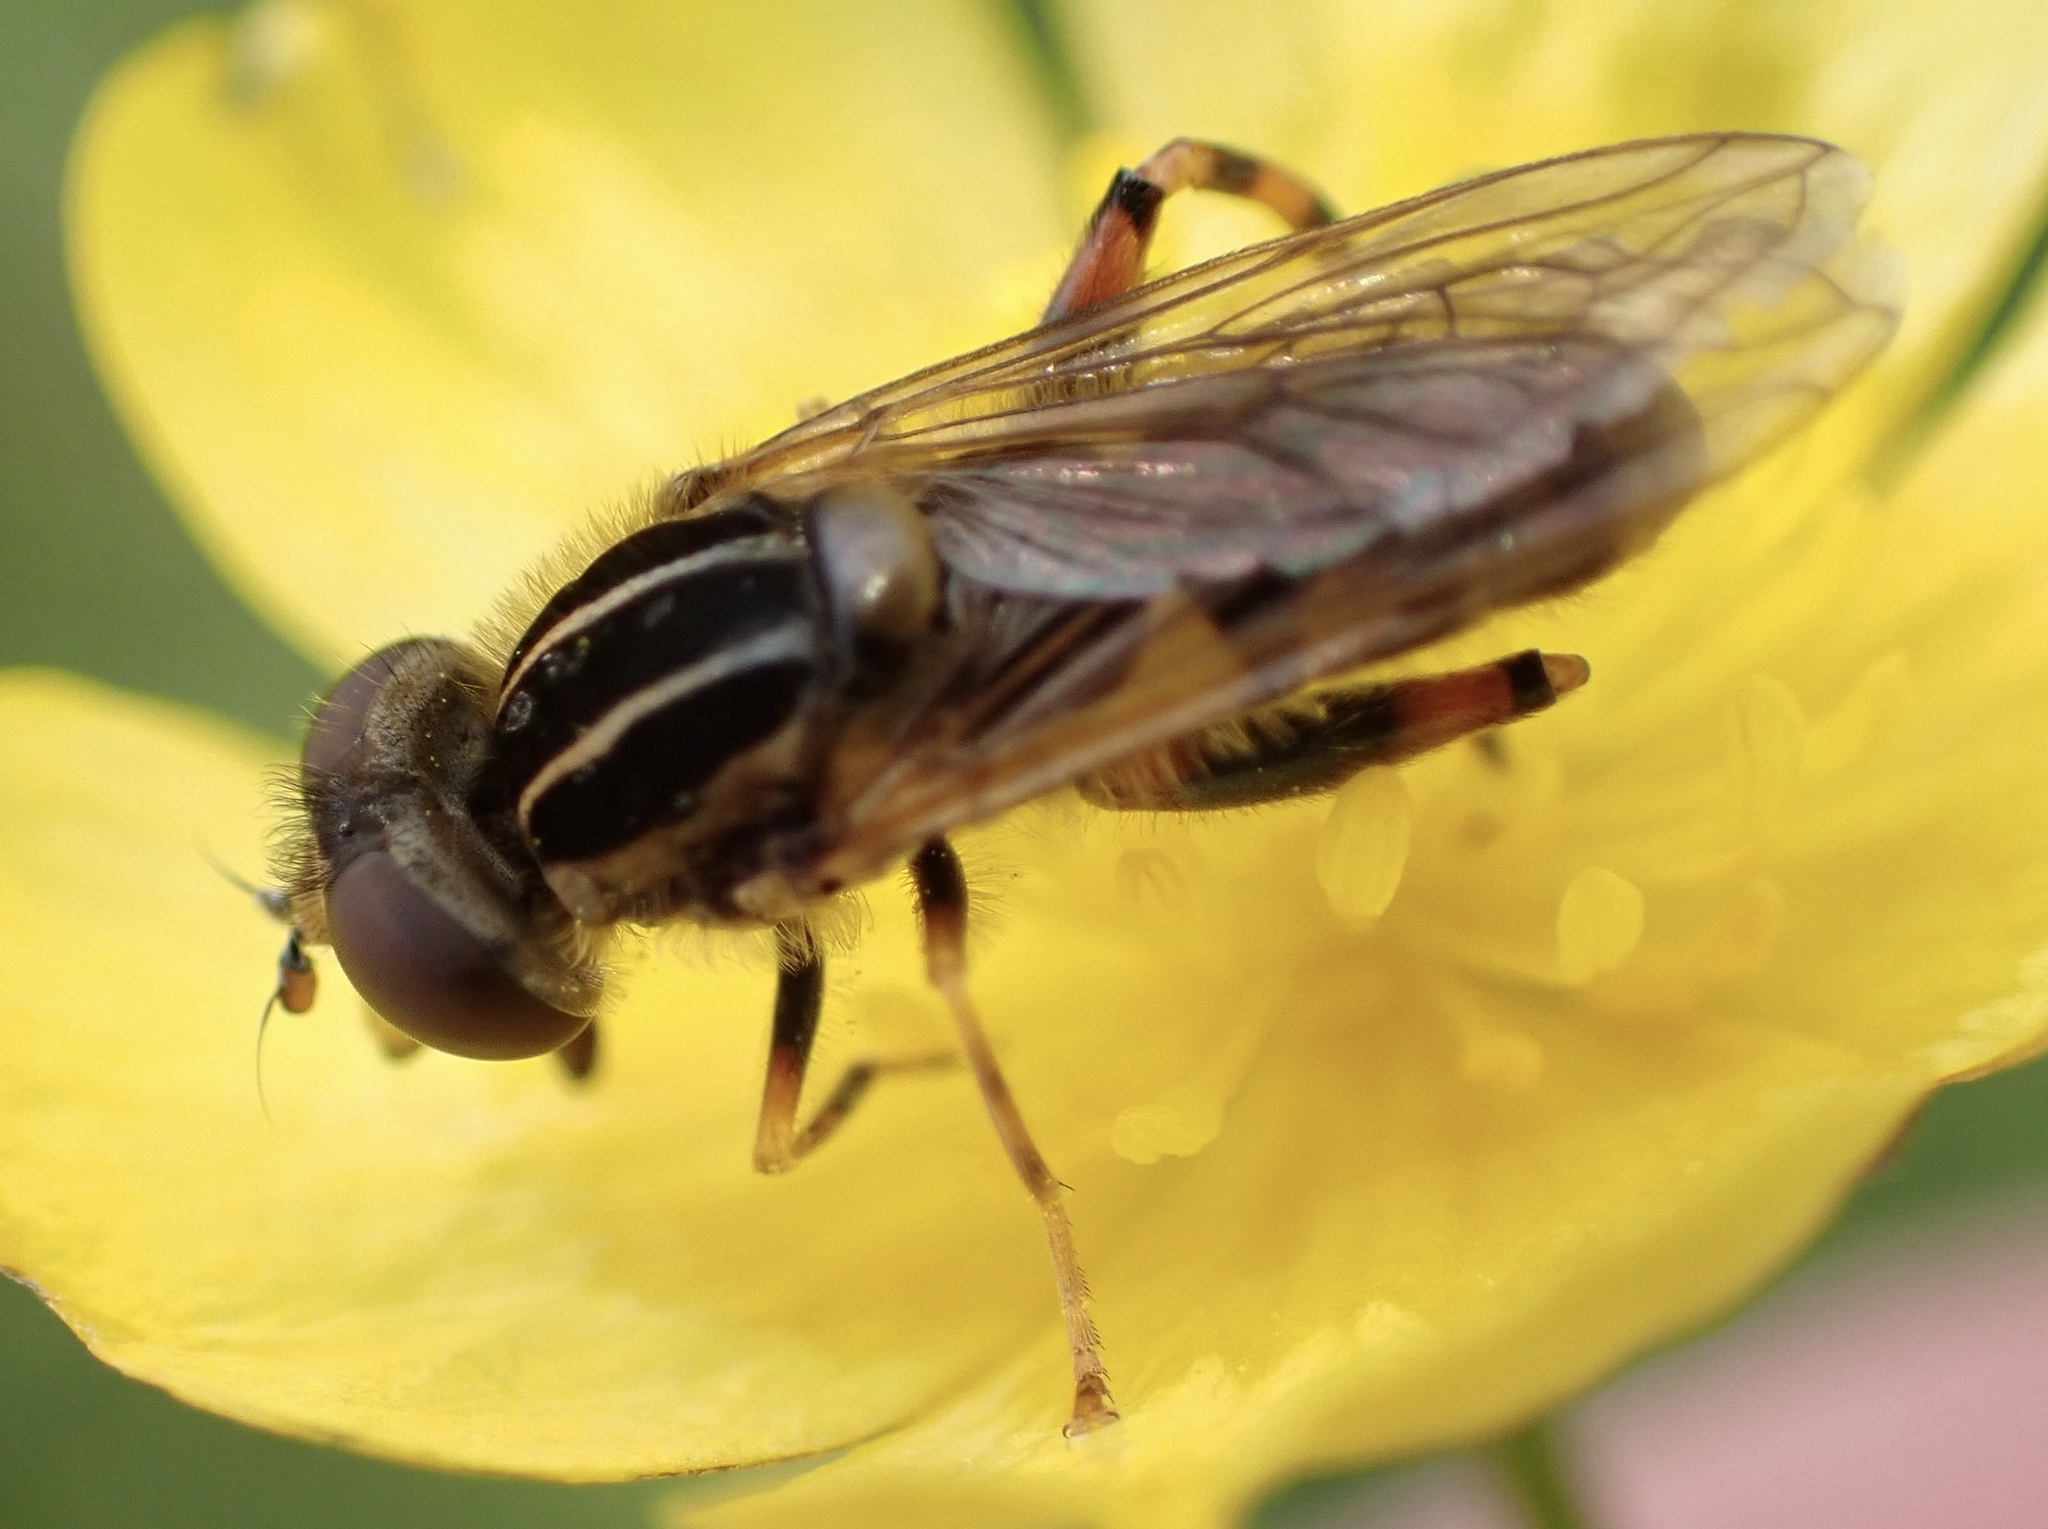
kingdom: Animalia
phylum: Arthropoda
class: Insecta
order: Diptera
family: Syrphidae
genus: Eurimyia
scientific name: Eurimyia lineatus
